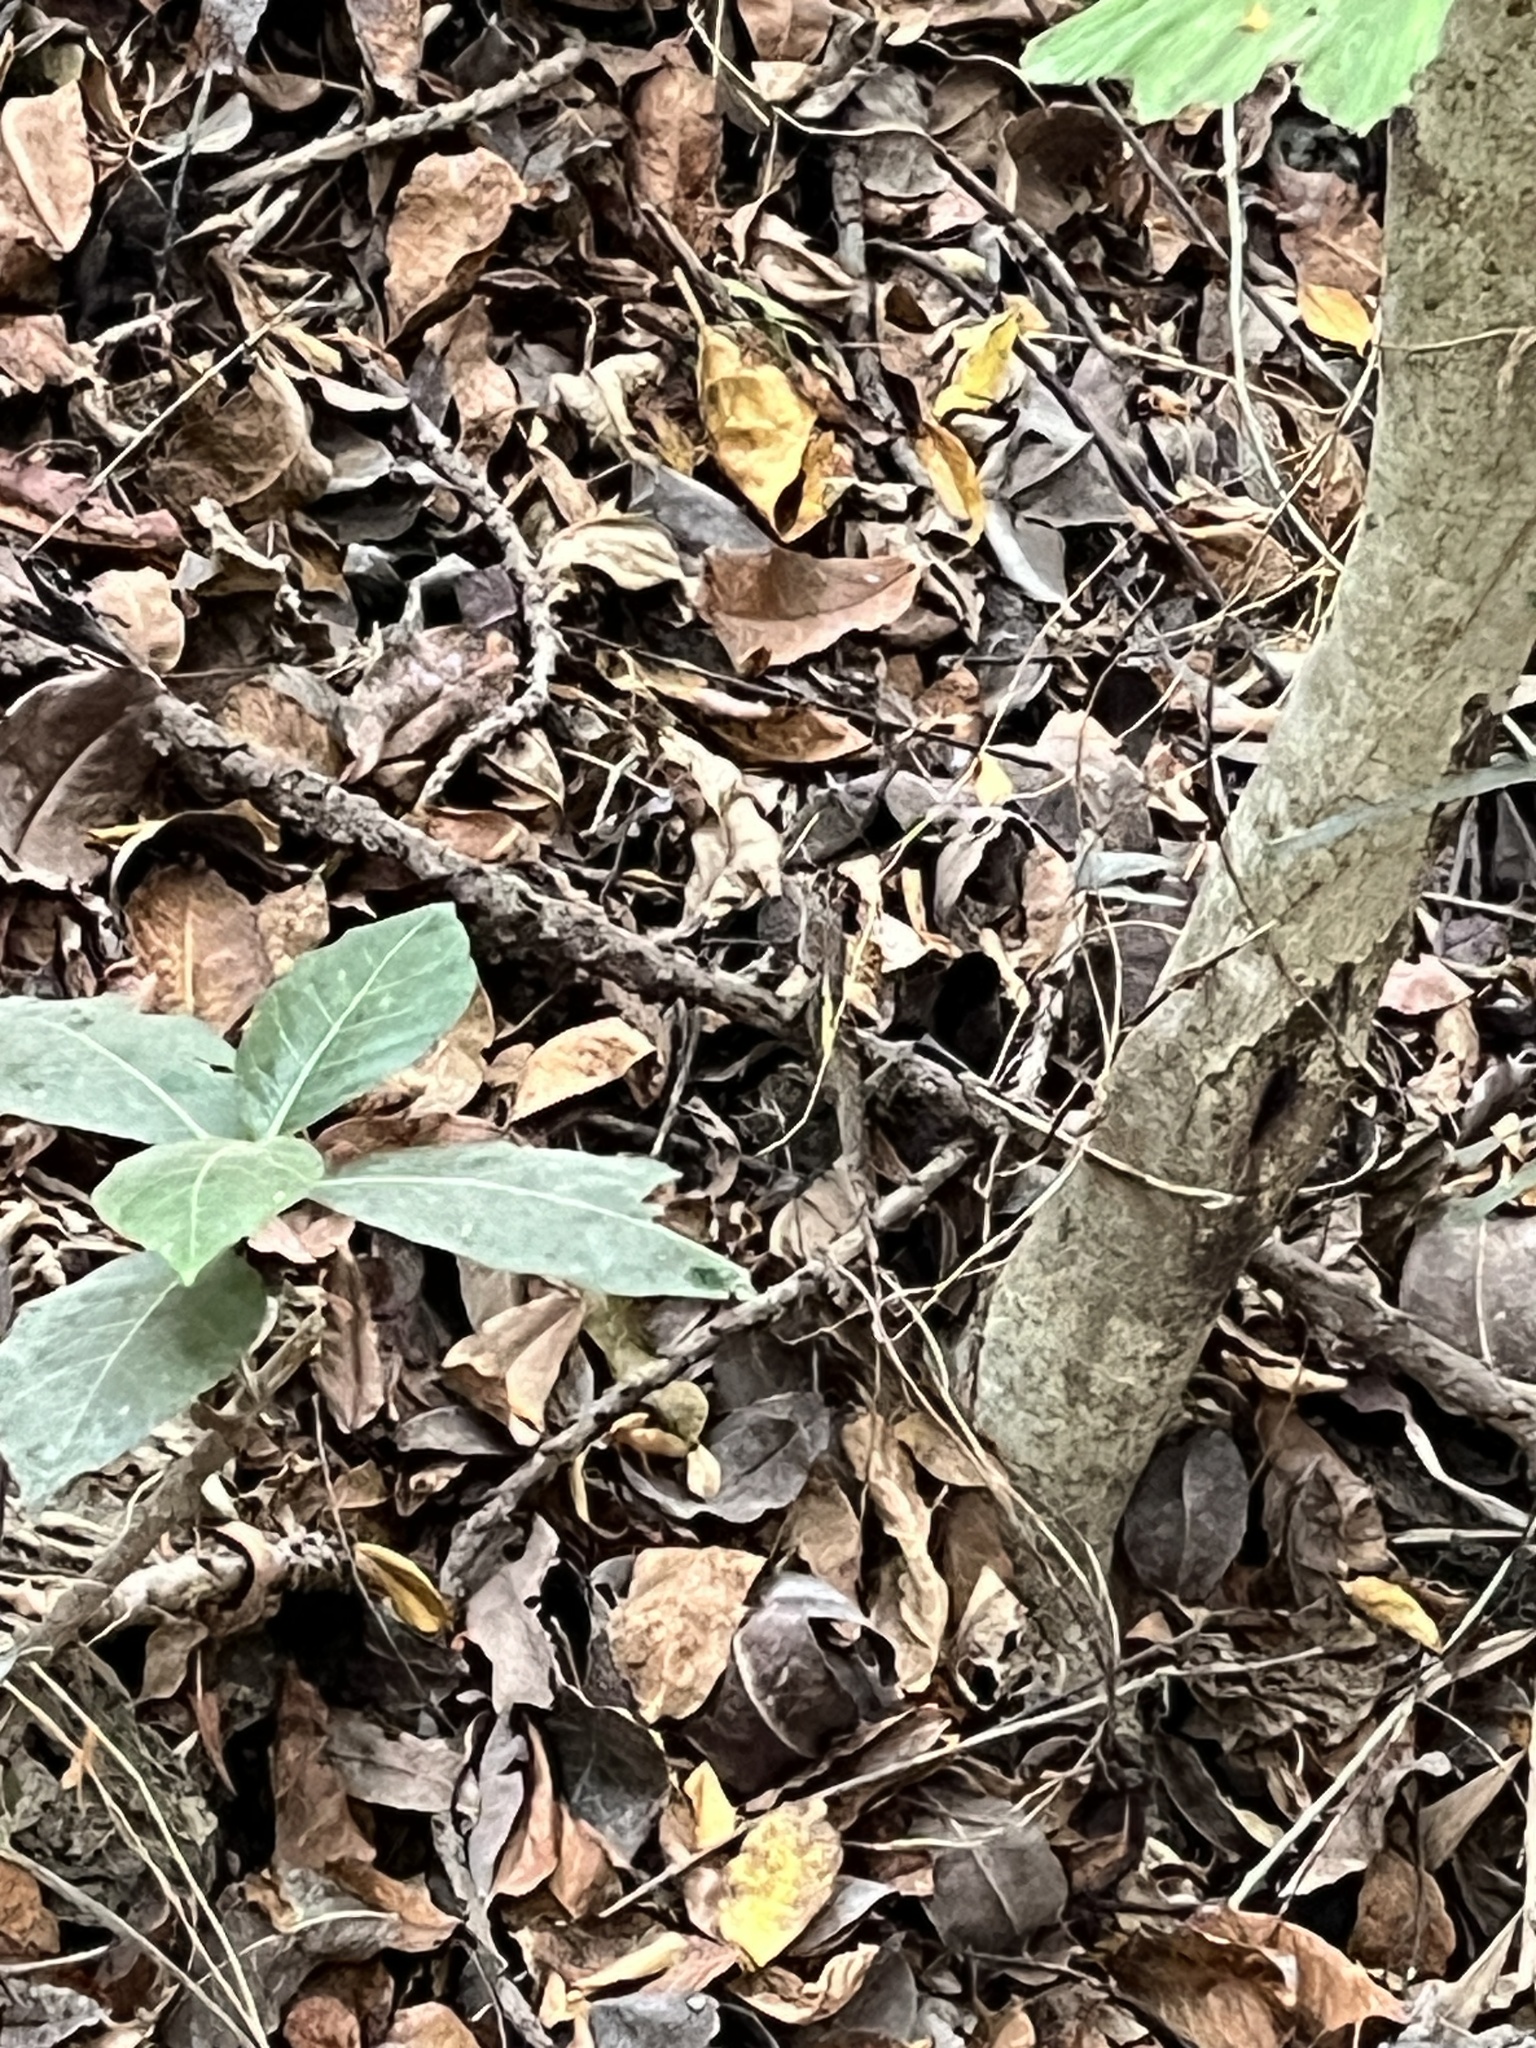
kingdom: Animalia
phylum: Chordata
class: Squamata
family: Agamidae
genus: Diploderma
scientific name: Diploderma swinhonis
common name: Taiwan japalure
